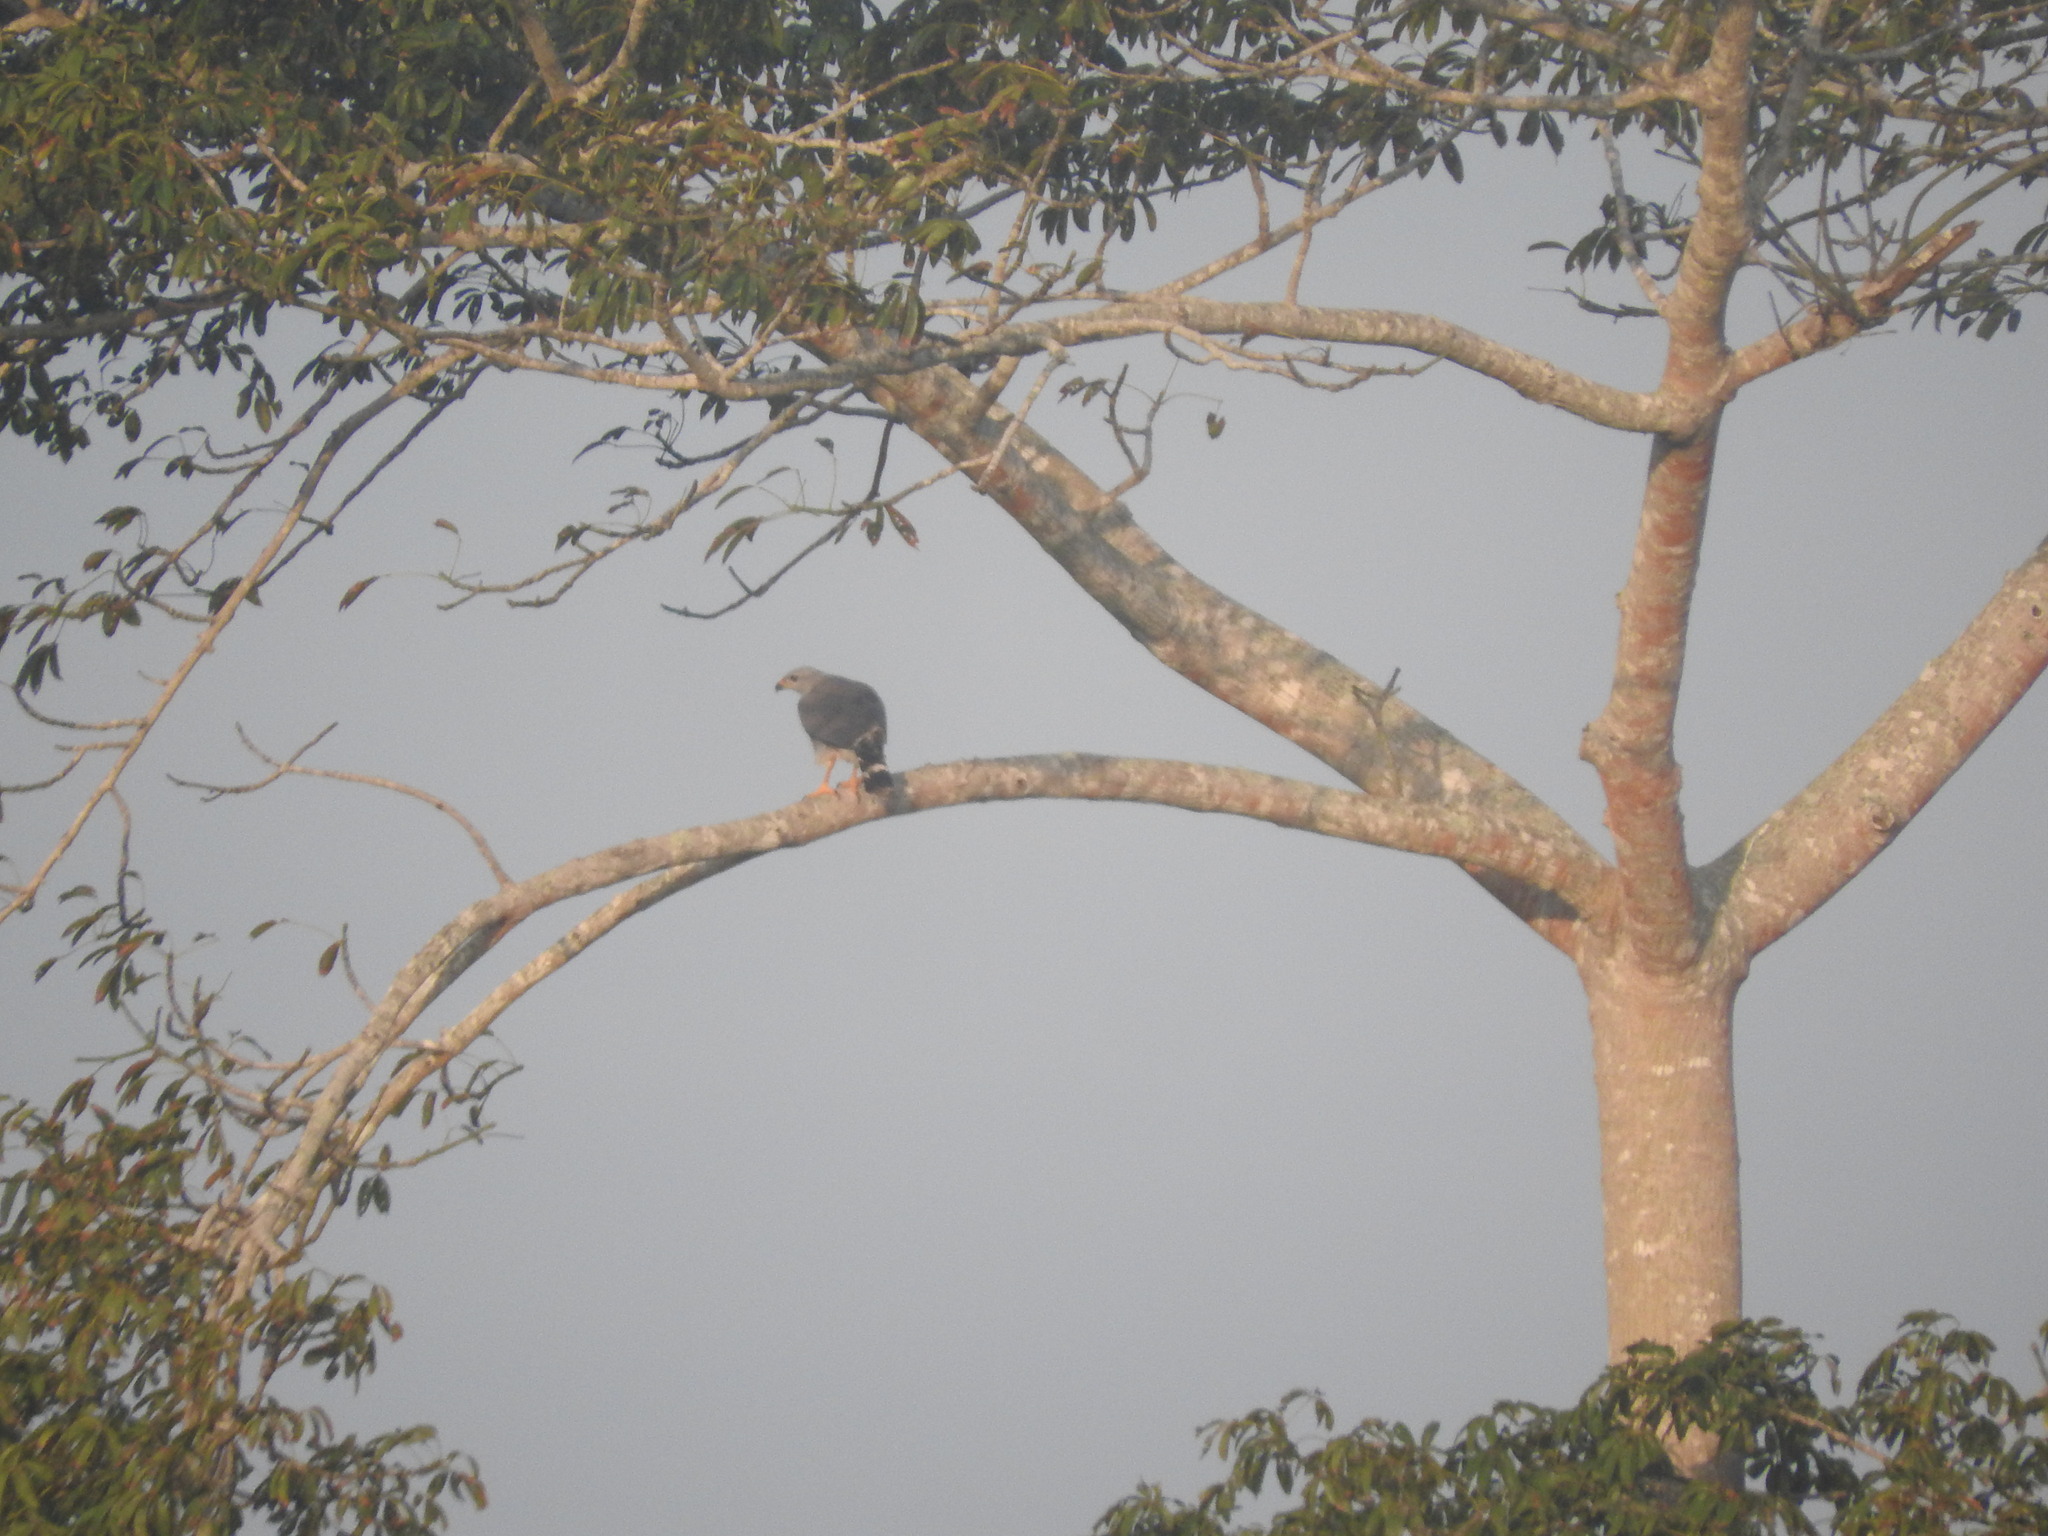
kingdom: Animalia
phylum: Chordata
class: Aves
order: Accipitriformes
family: Accipitridae
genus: Buteo
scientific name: Buteo nitidus
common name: Grey-lined hawk
